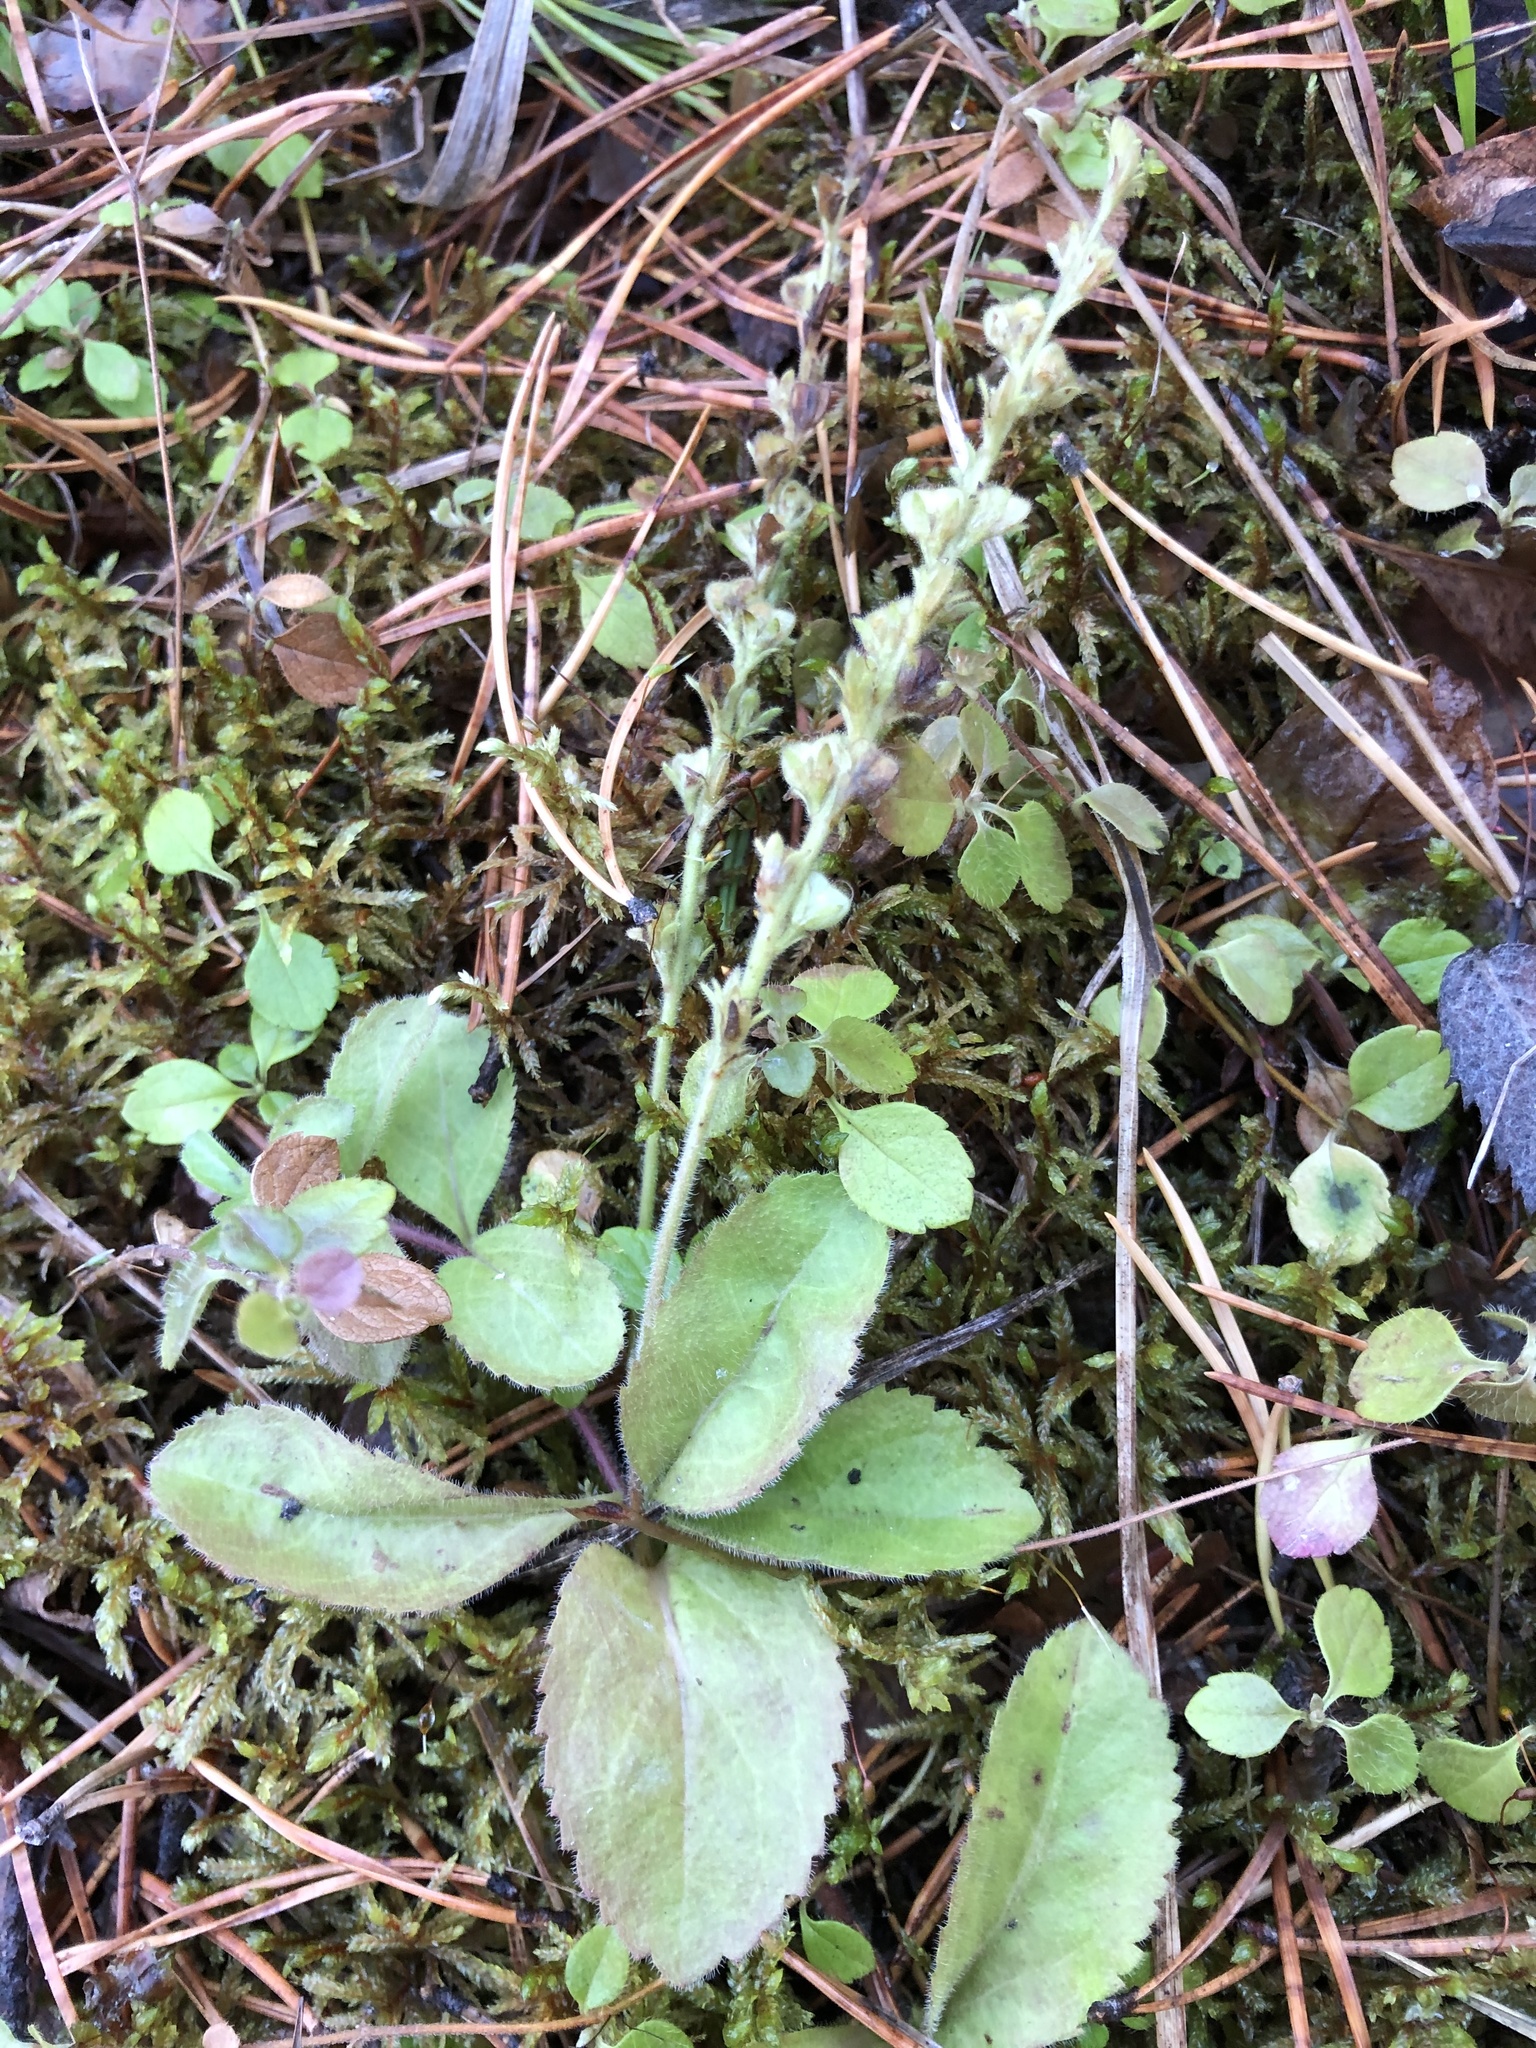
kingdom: Plantae
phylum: Tracheophyta
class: Magnoliopsida
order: Lamiales
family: Plantaginaceae
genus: Veronica
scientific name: Veronica officinalis
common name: Common speedwell
